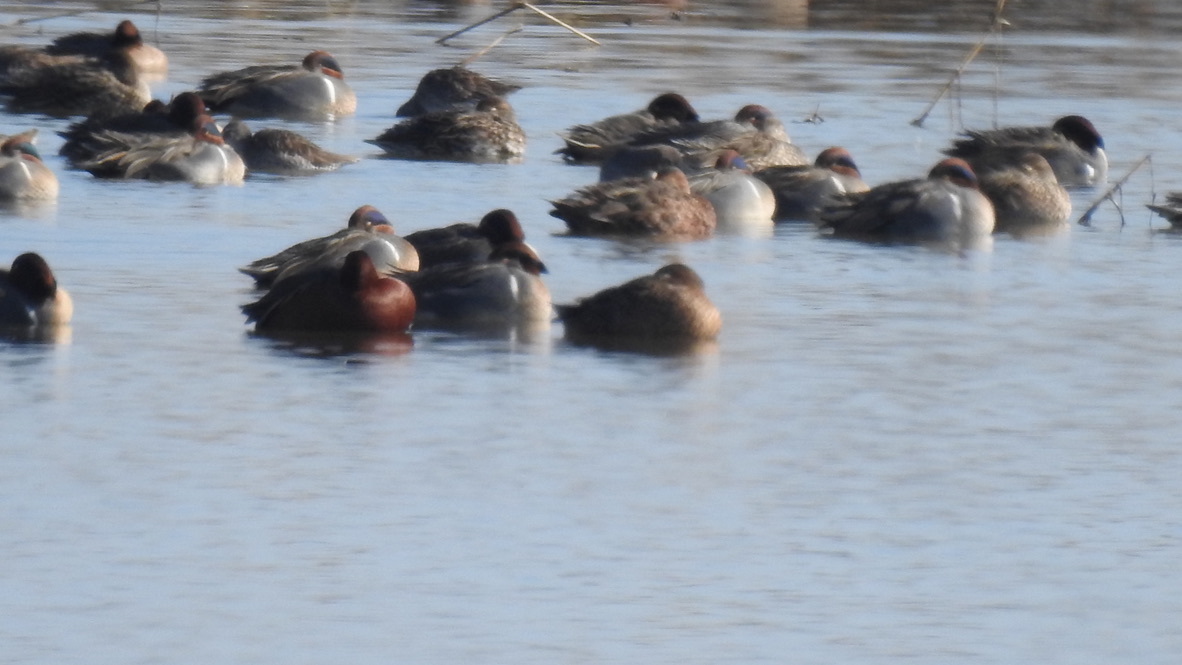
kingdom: Animalia
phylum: Chordata
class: Aves
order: Anseriformes
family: Anatidae
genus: Anas
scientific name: Anas crecca
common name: Eurasian teal
